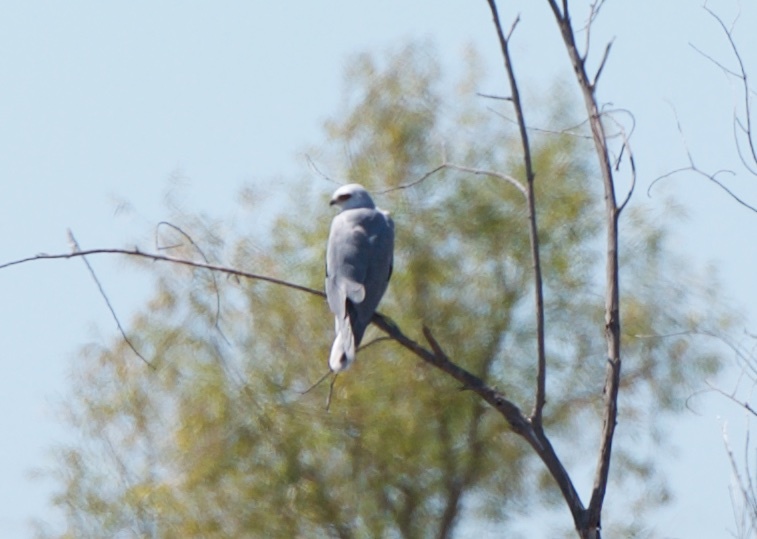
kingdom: Animalia
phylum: Chordata
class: Aves
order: Accipitriformes
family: Accipitridae
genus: Elanus
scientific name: Elanus leucurus
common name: White-tailed kite
